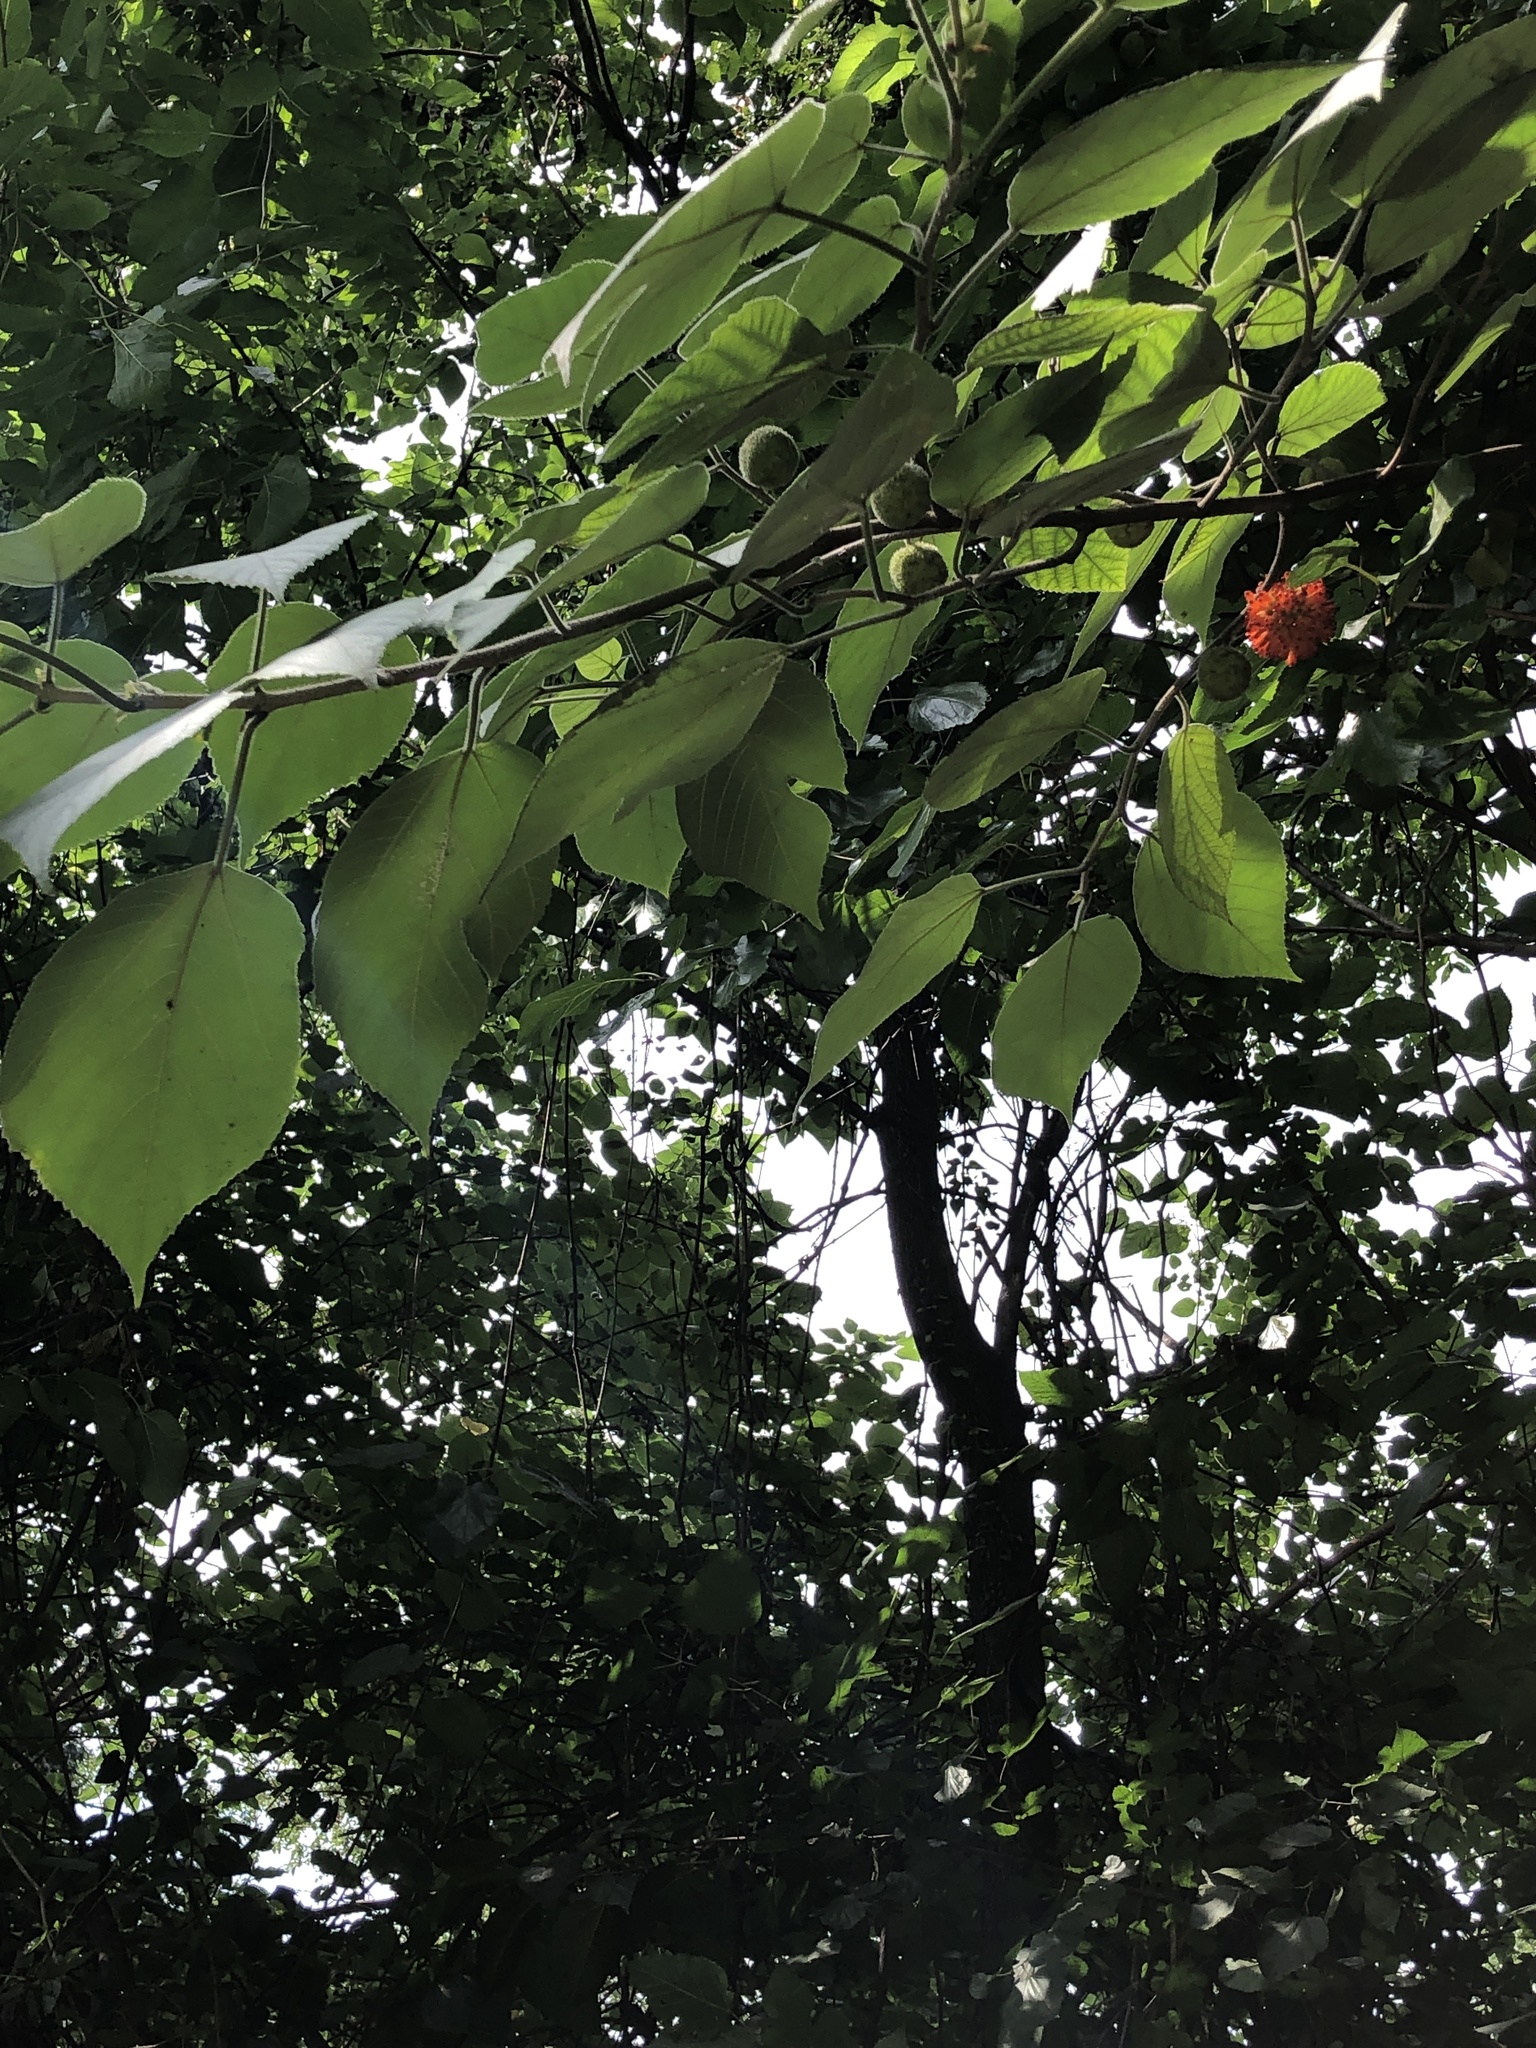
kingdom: Plantae
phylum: Tracheophyta
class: Magnoliopsida
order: Rosales
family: Moraceae
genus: Broussonetia
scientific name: Broussonetia papyrifera
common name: Paper mulberry
